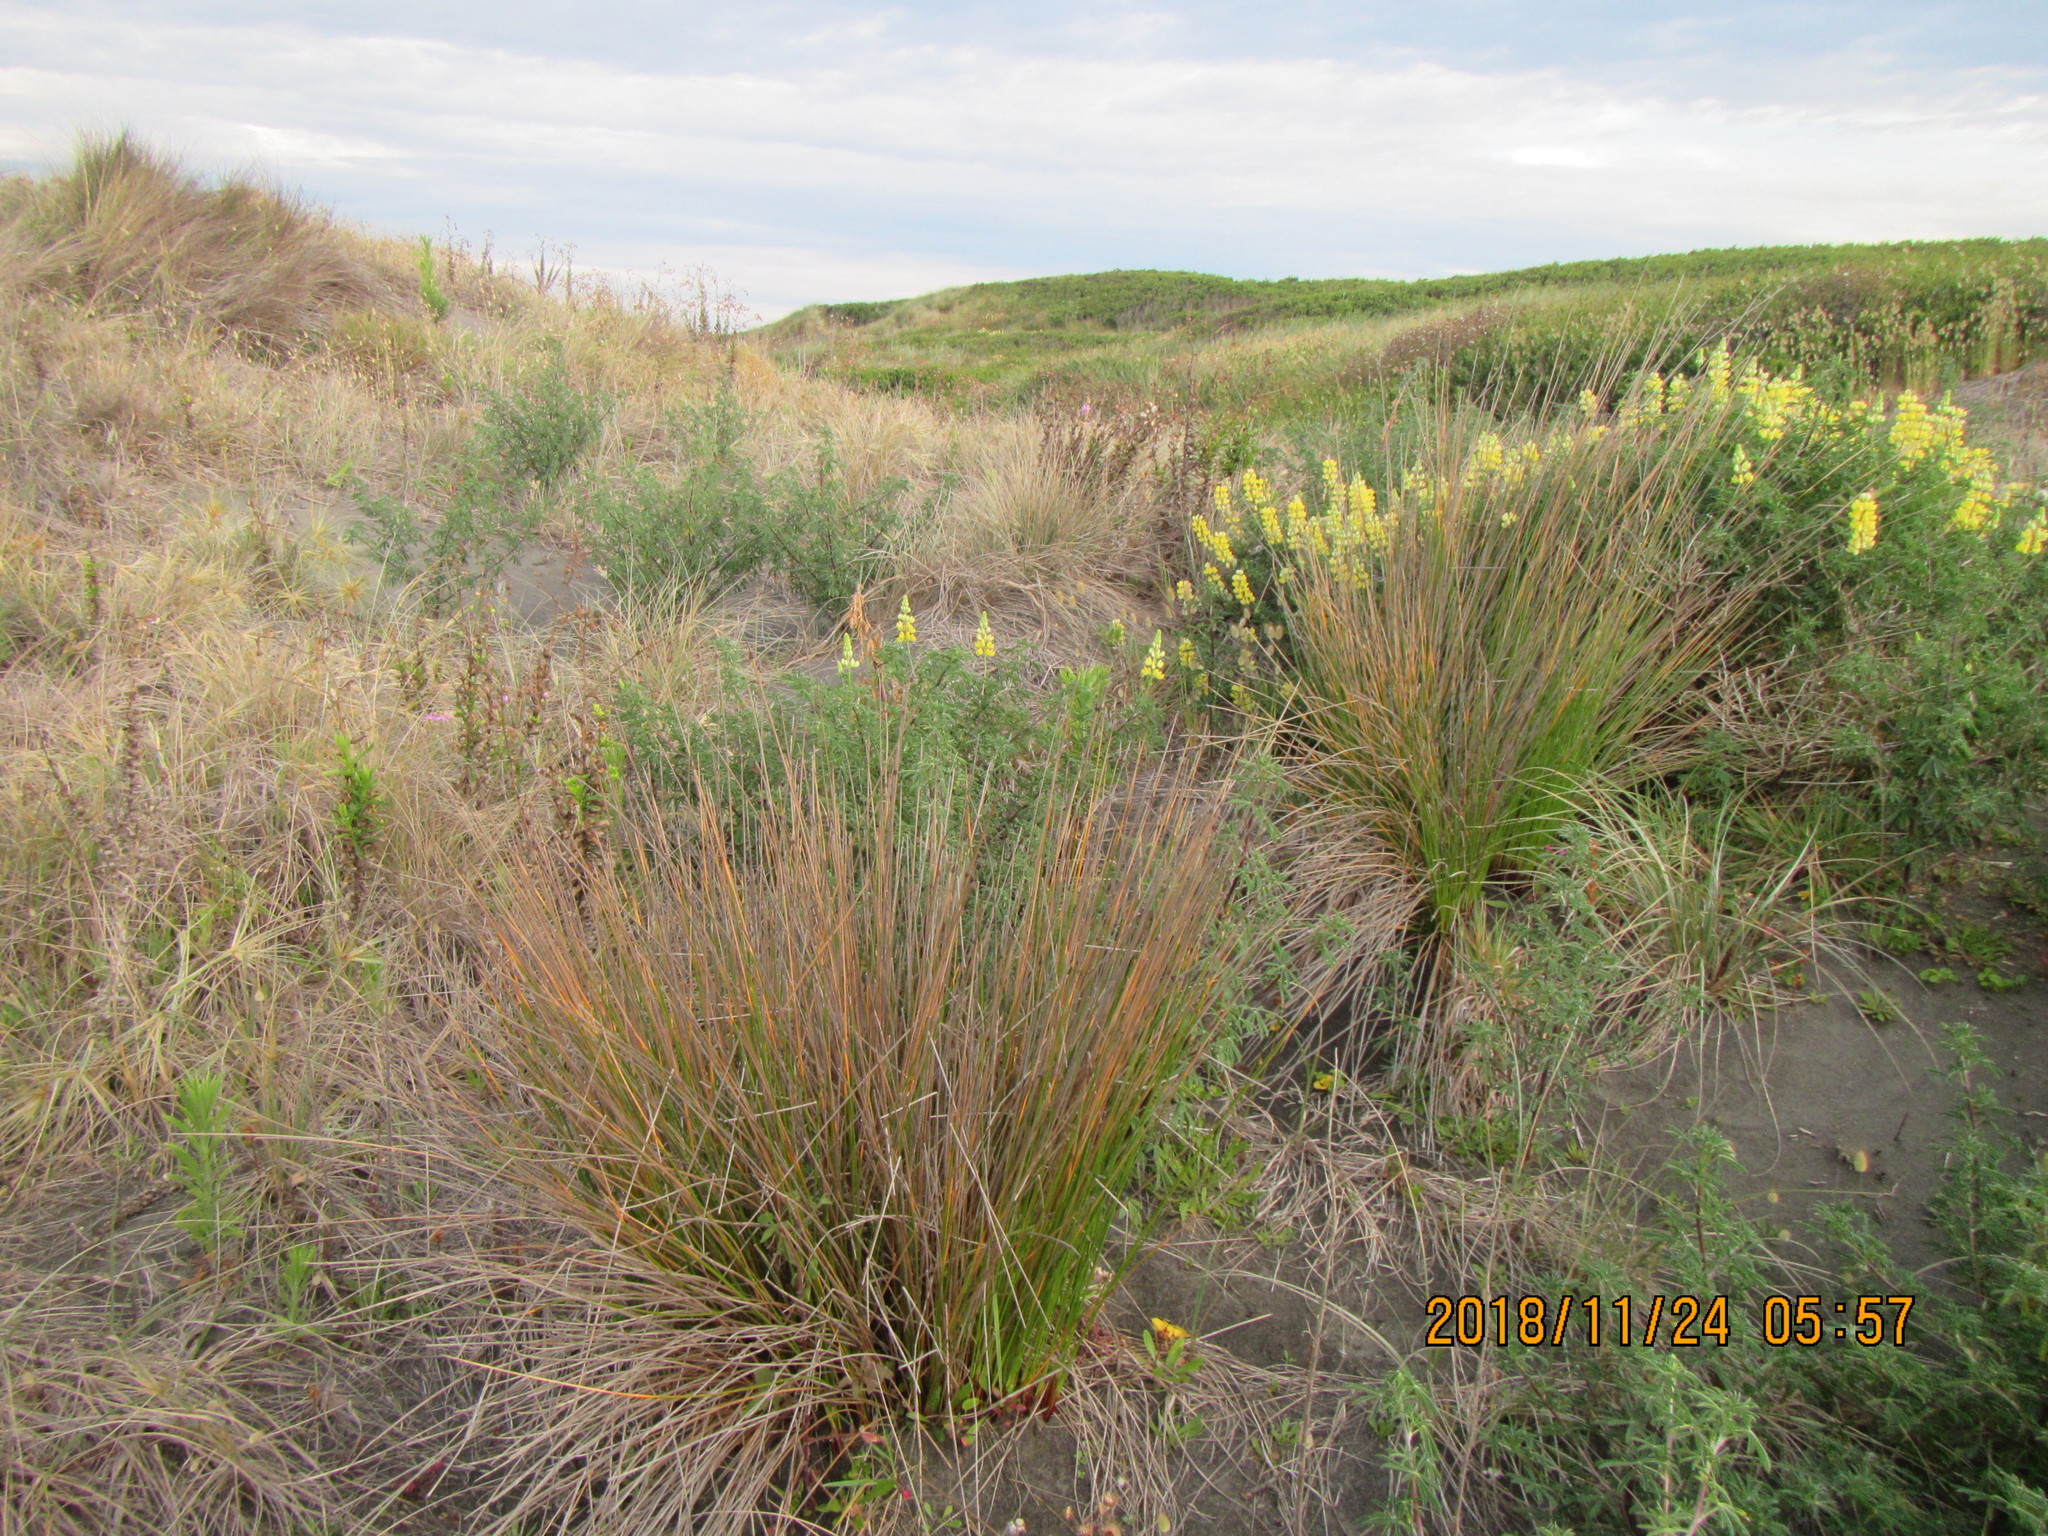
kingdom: Plantae
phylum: Tracheophyta
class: Liliopsida
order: Poales
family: Cyperaceae
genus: Ficinia
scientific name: Ficinia nodosa
